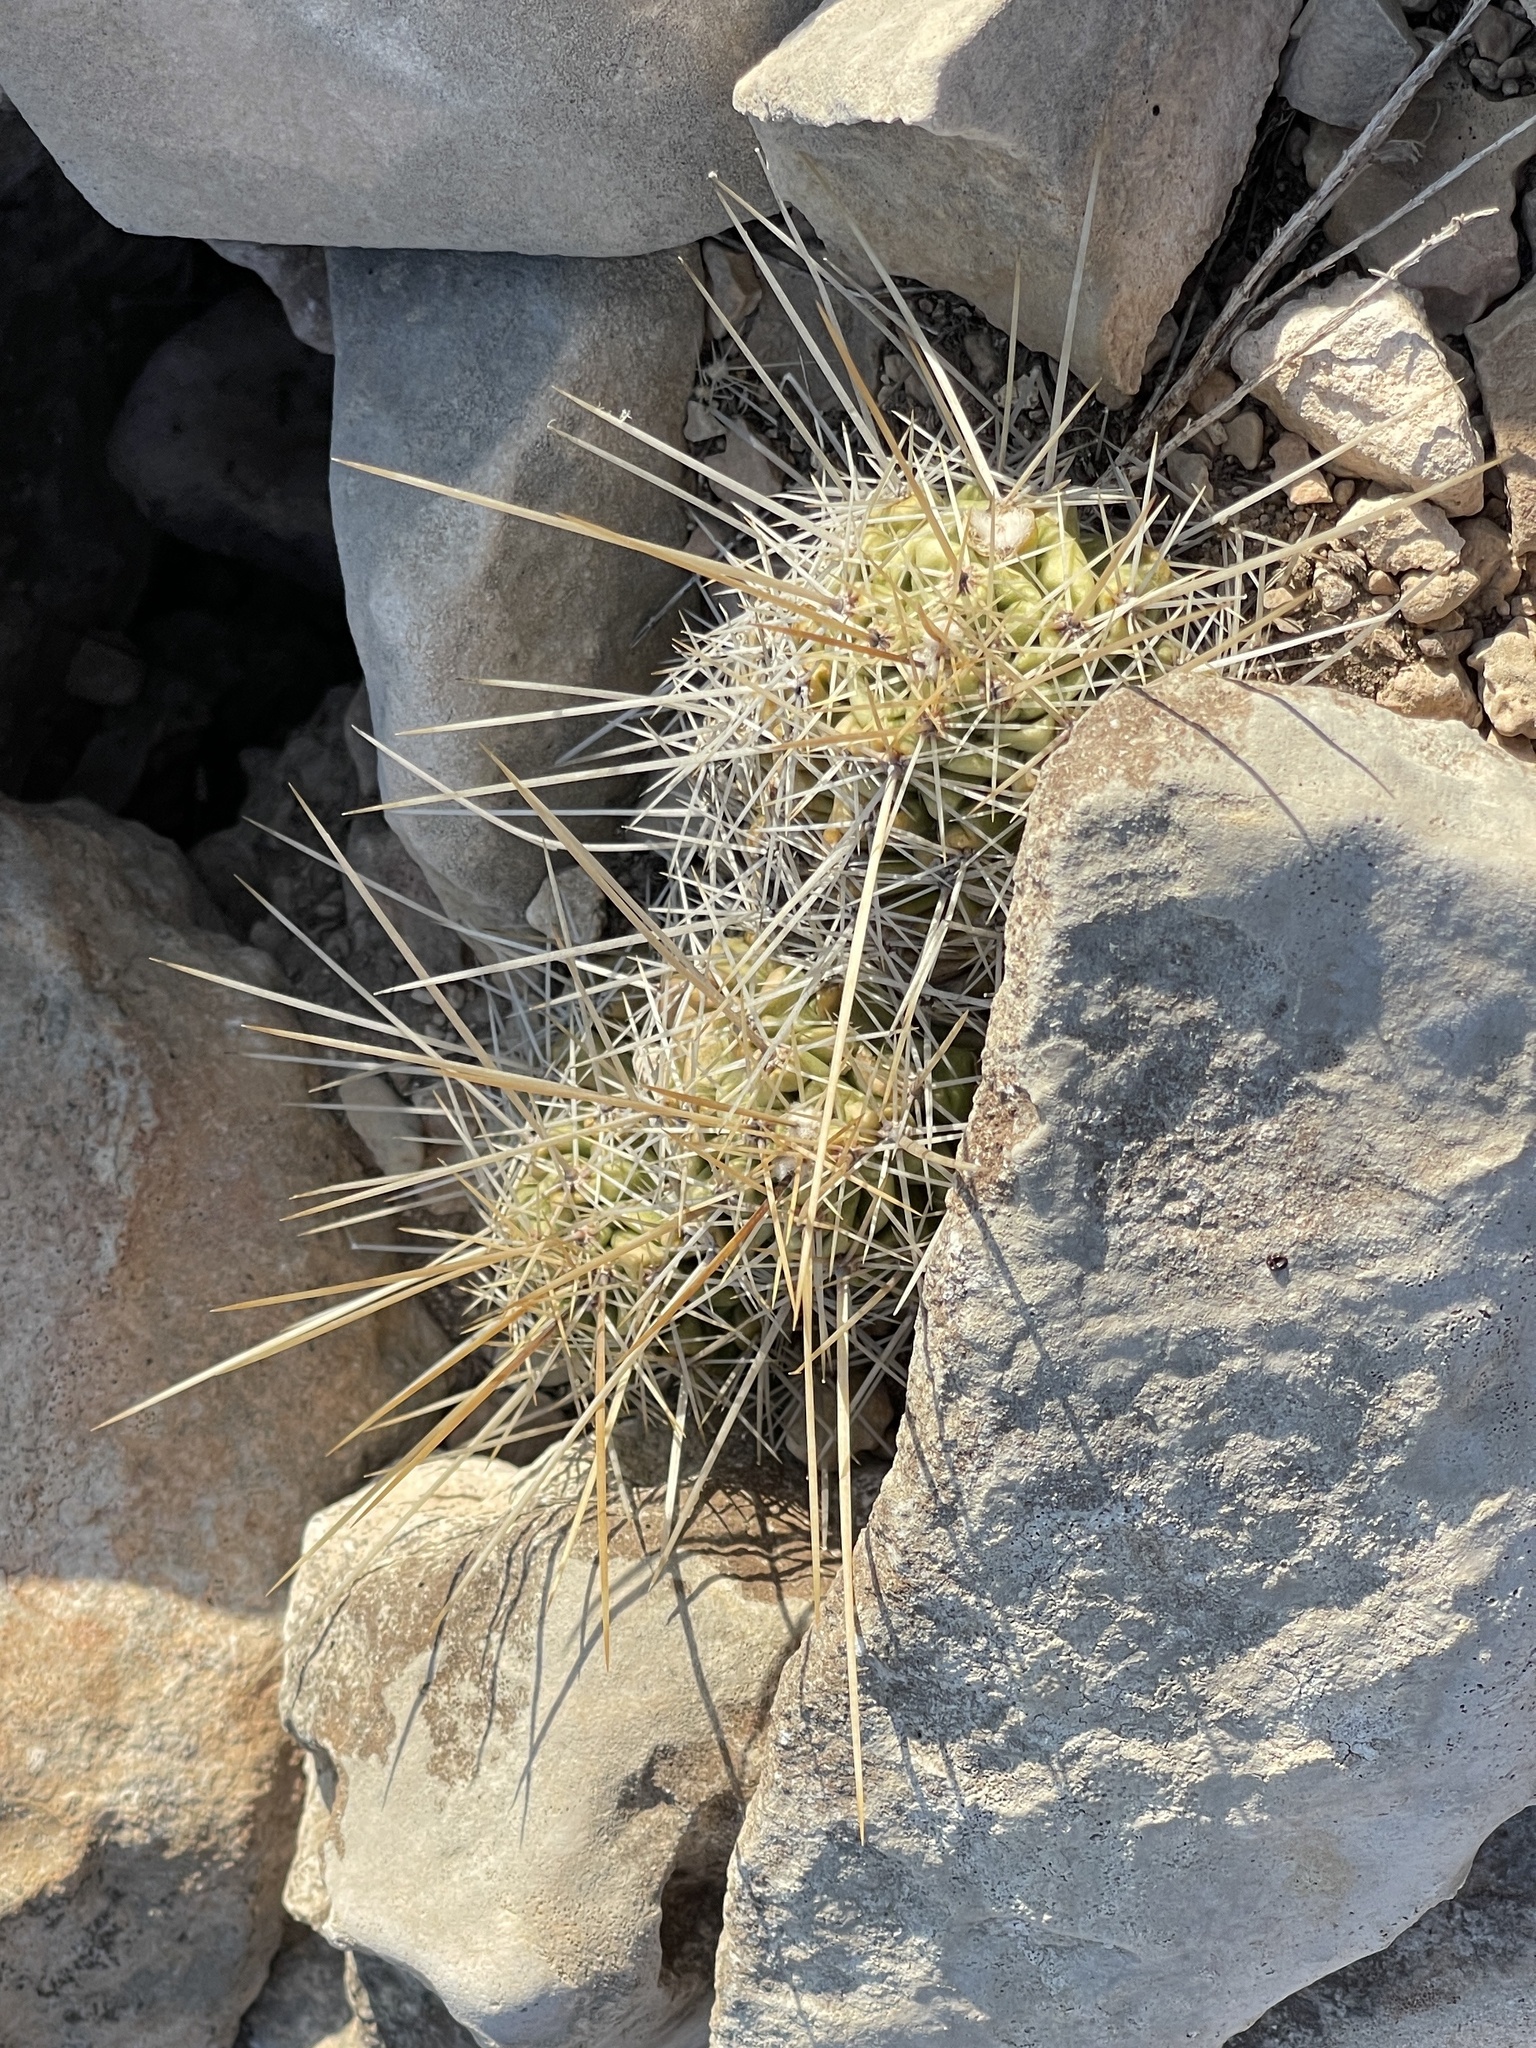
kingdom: Plantae
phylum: Tracheophyta
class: Magnoliopsida
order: Caryophyllales
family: Cactaceae
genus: Echinocereus
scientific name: Echinocereus enneacanthus
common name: Pitaya
